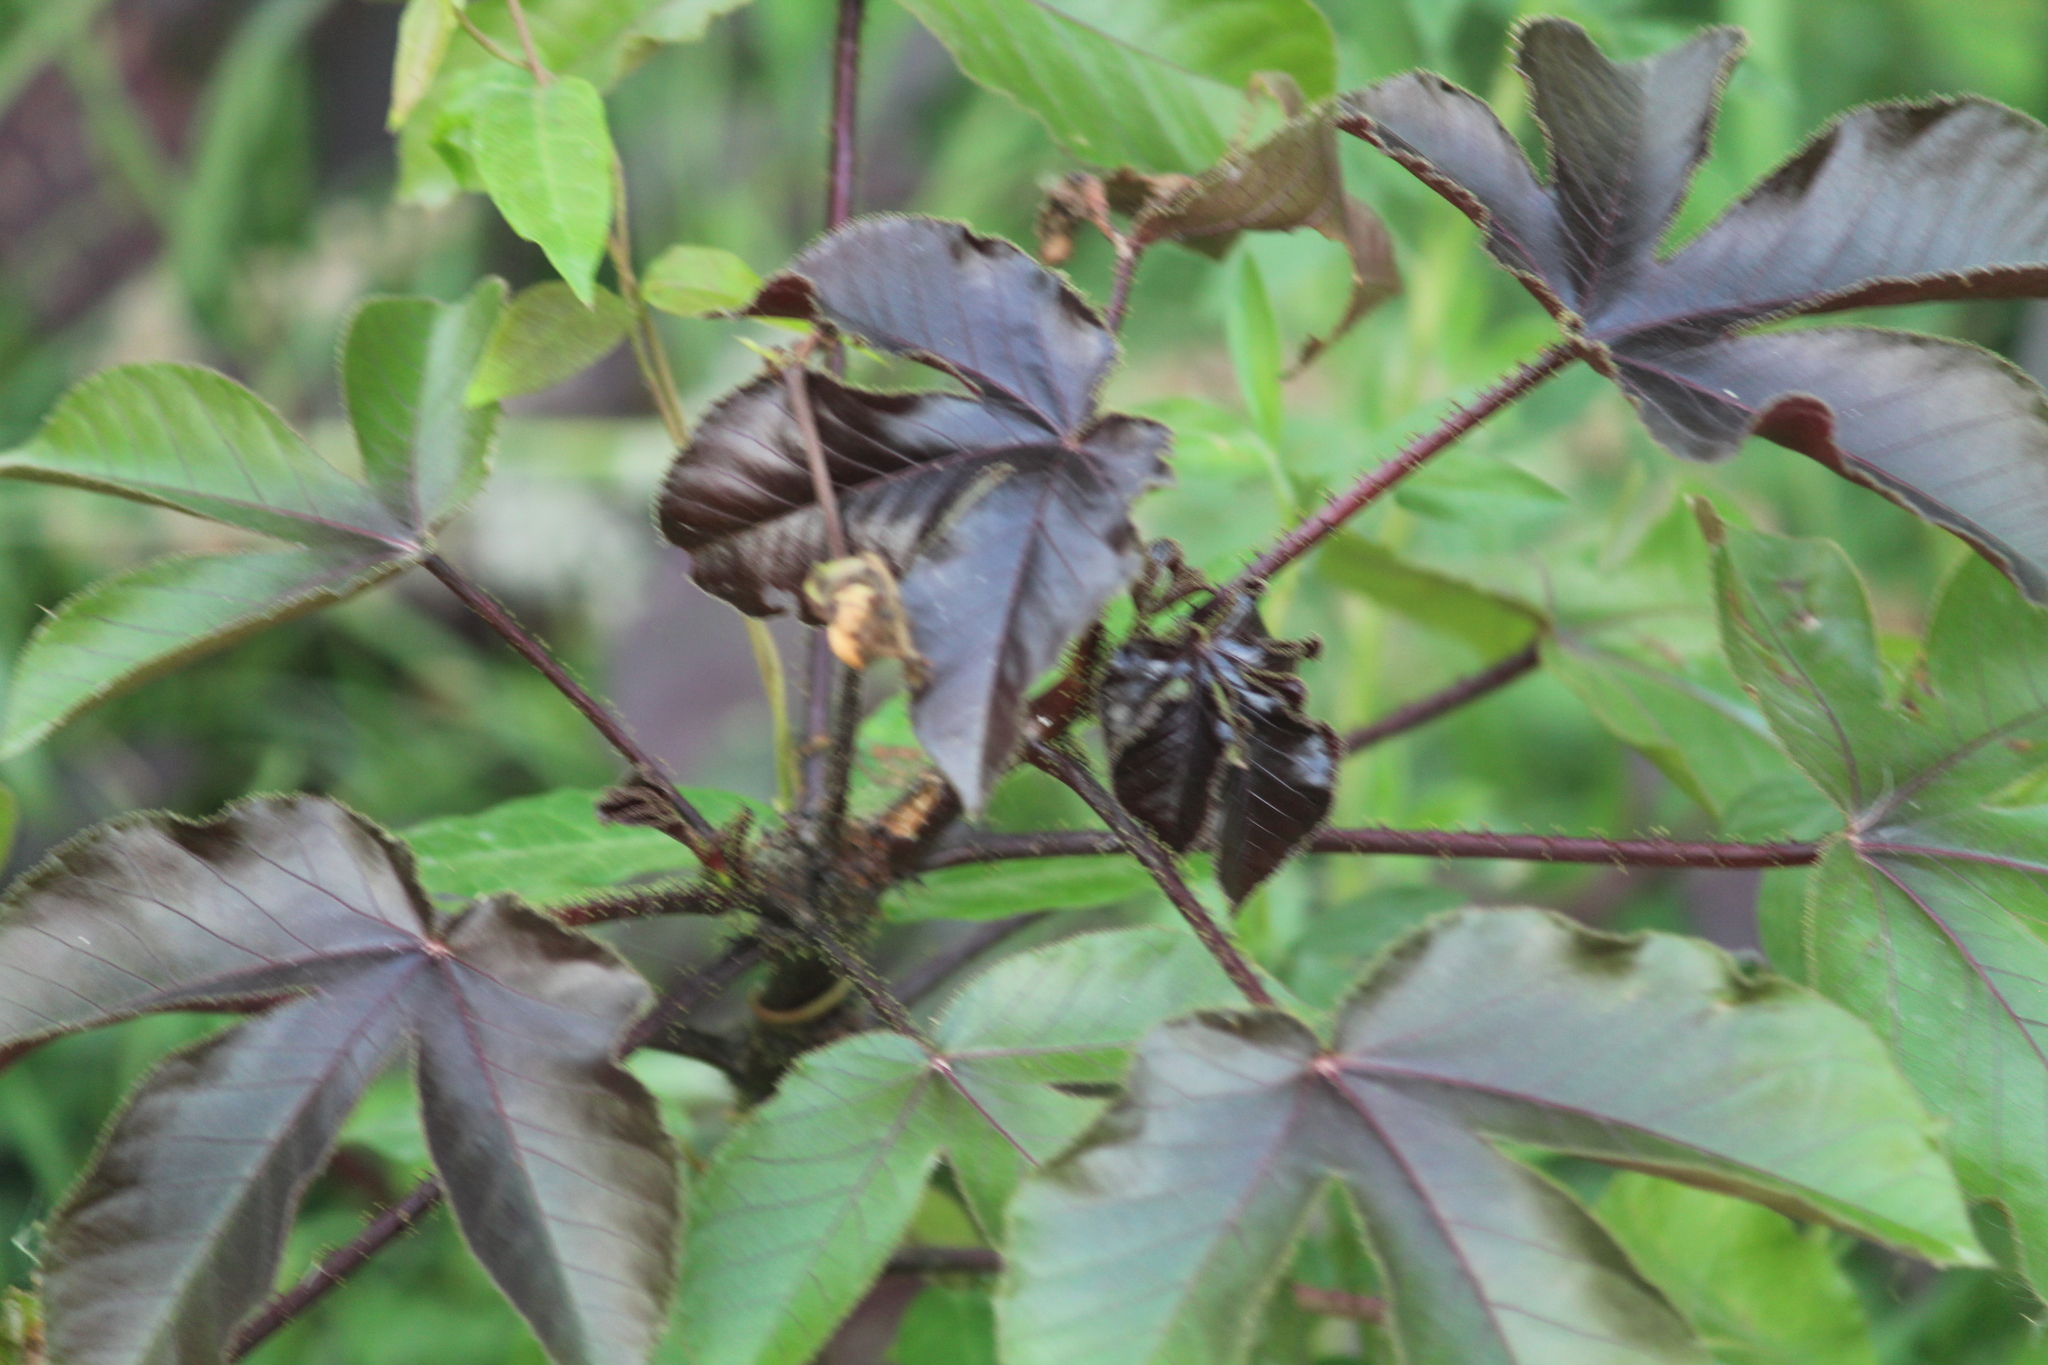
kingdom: Plantae
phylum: Tracheophyta
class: Magnoliopsida
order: Malpighiales
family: Euphorbiaceae
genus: Jatropha
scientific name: Jatropha gossypiifolia
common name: Bellyache bush
